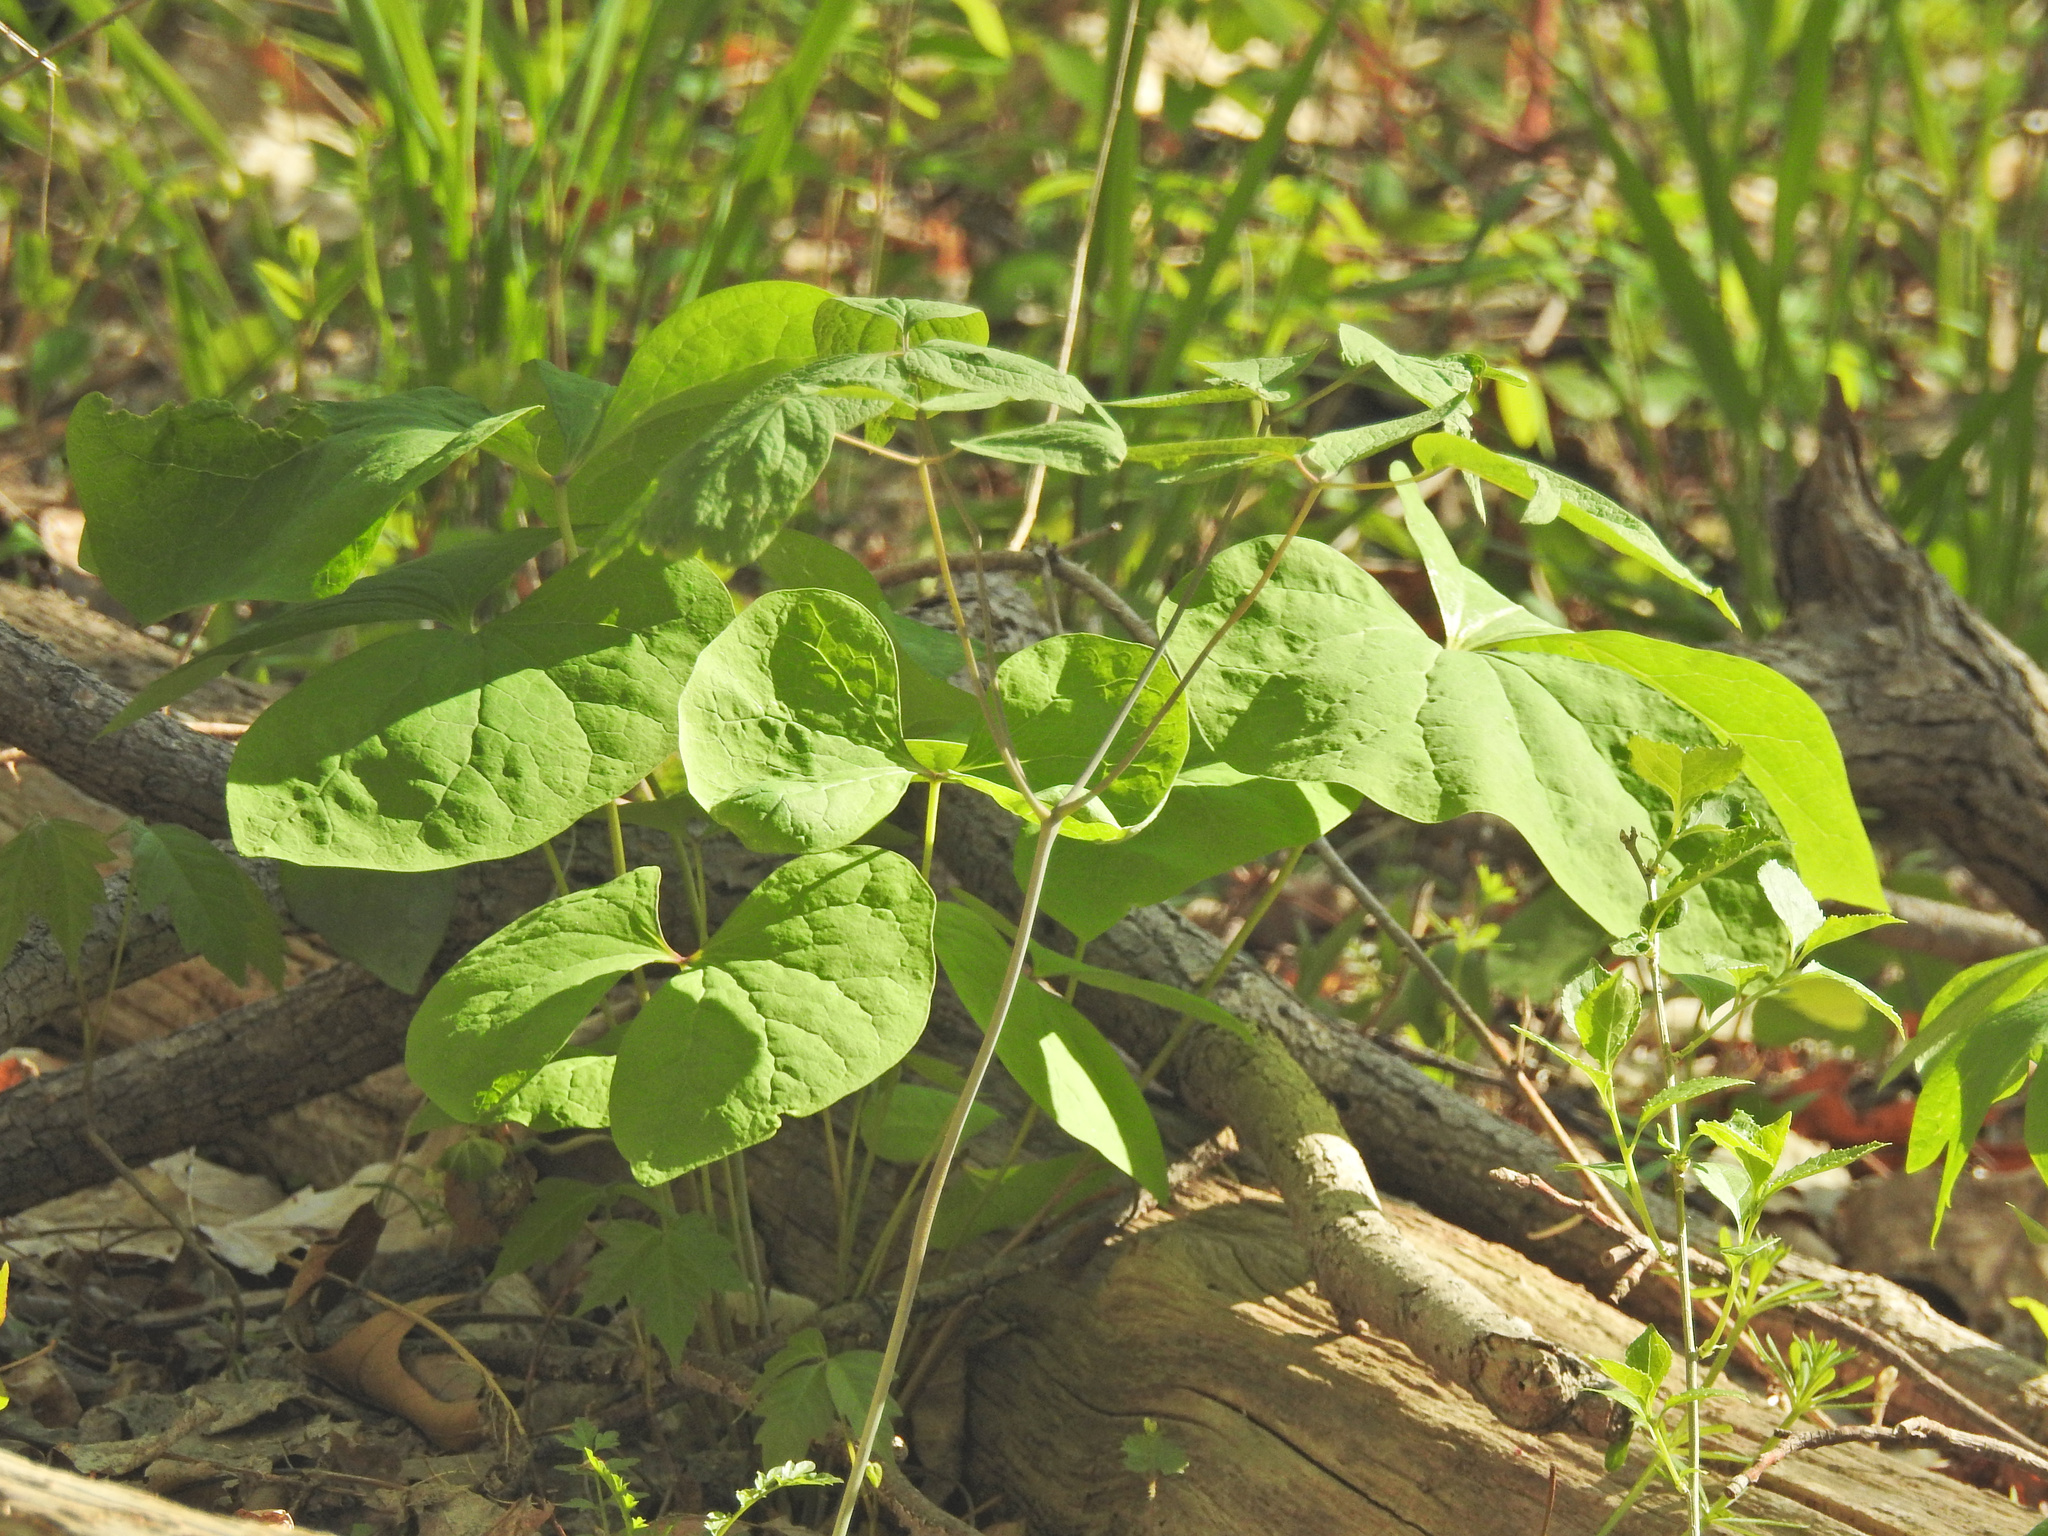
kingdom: Plantae
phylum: Tracheophyta
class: Magnoliopsida
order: Ranunculales
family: Berberidaceae
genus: Jeffersonia
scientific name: Jeffersonia diphylla
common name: Rheumatism-root
